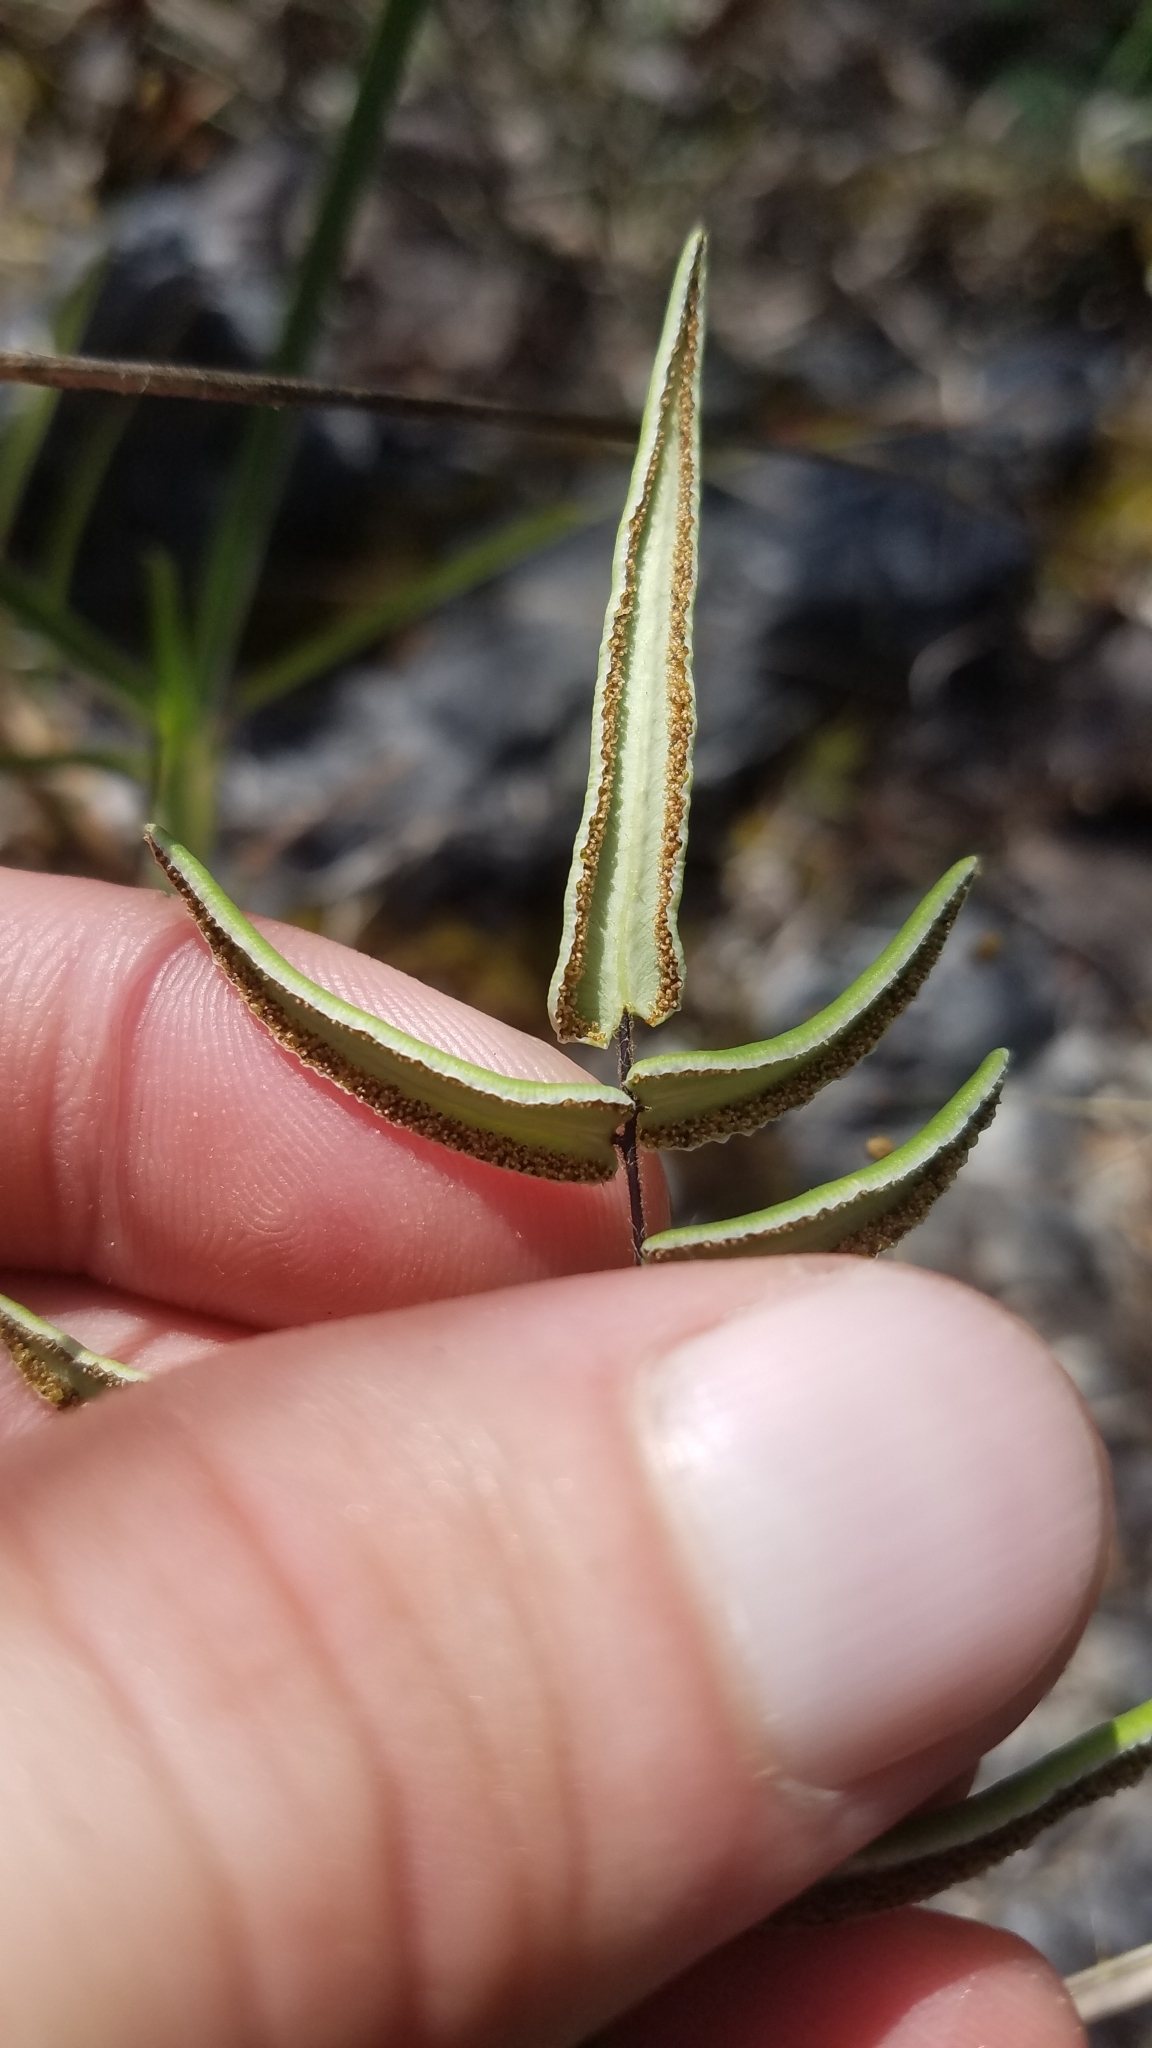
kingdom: Plantae
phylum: Tracheophyta
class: Polypodiopsida
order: Polypodiales
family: Pteridaceae
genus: Pellaea
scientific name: Pellaea atropurpurea
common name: Hairy cliffbrake
